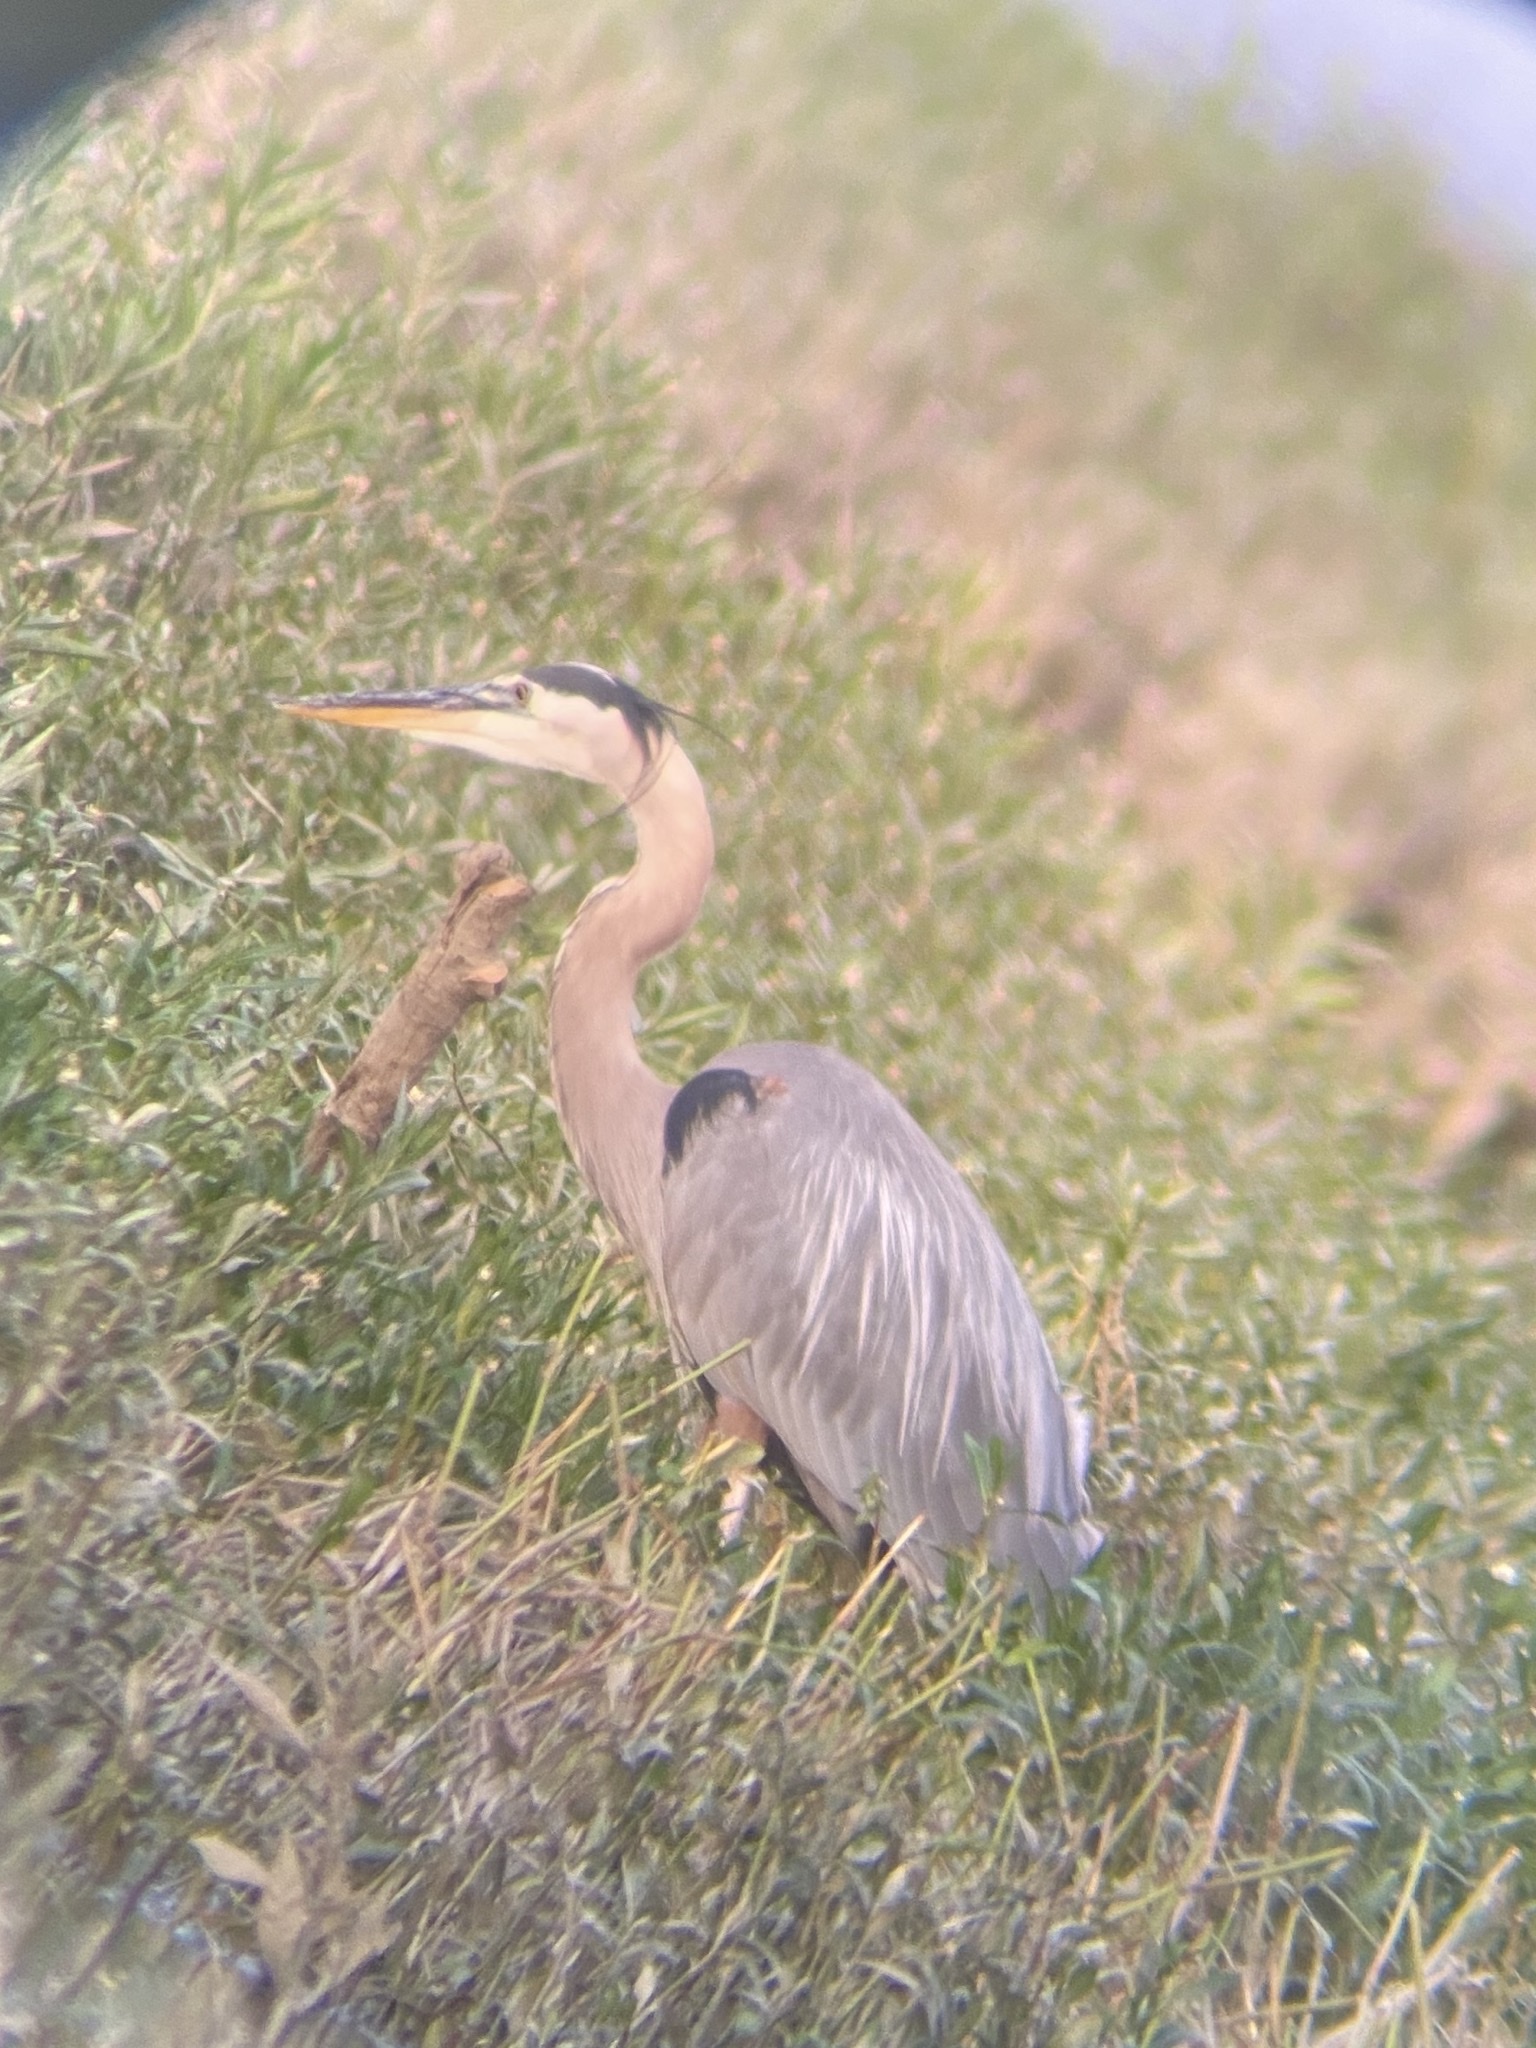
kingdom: Animalia
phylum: Chordata
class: Aves
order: Pelecaniformes
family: Ardeidae
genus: Ardea
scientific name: Ardea herodias
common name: Great blue heron
